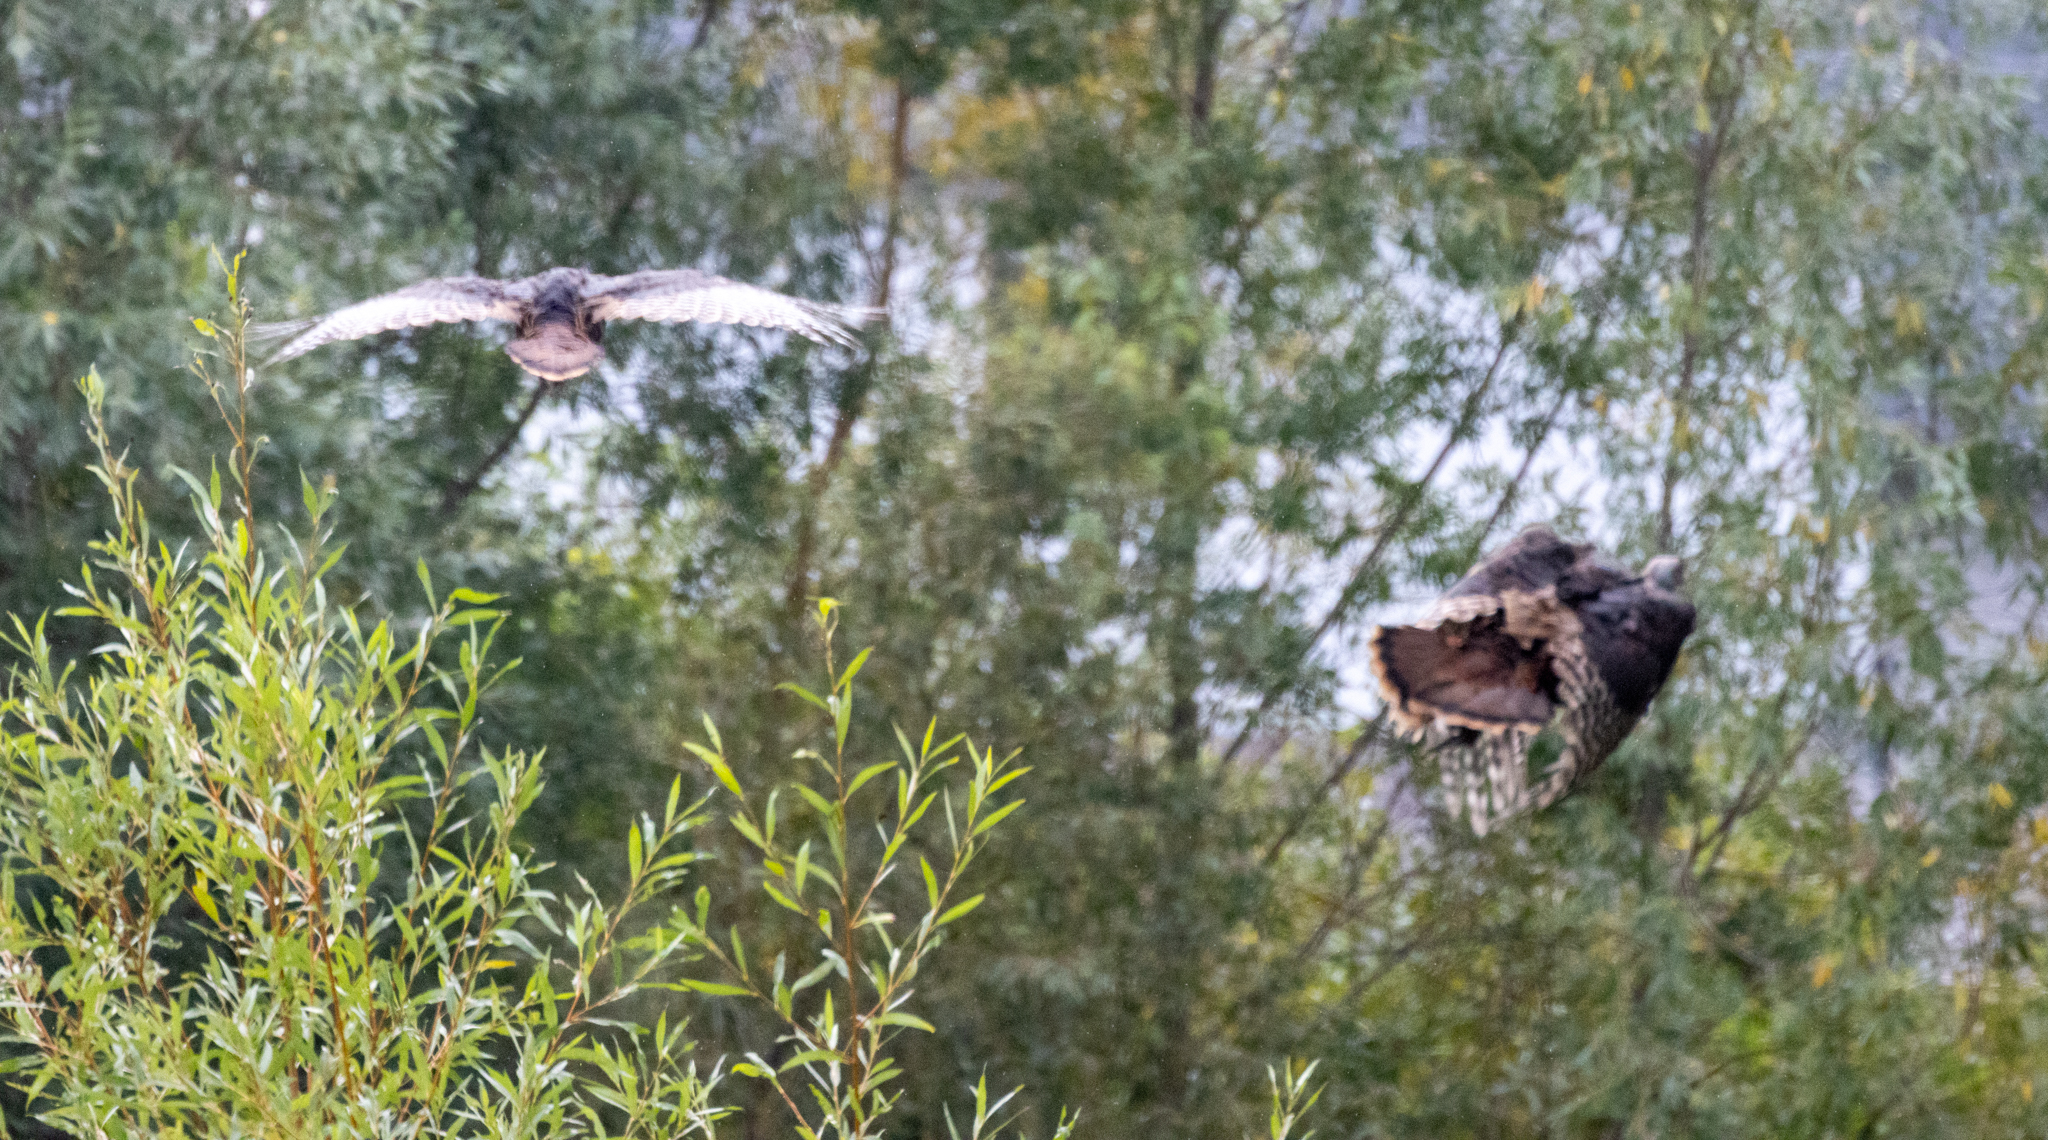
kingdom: Animalia
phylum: Chordata
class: Aves
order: Galliformes
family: Phasianidae
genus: Meleagris
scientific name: Meleagris gallopavo
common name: Wild turkey
